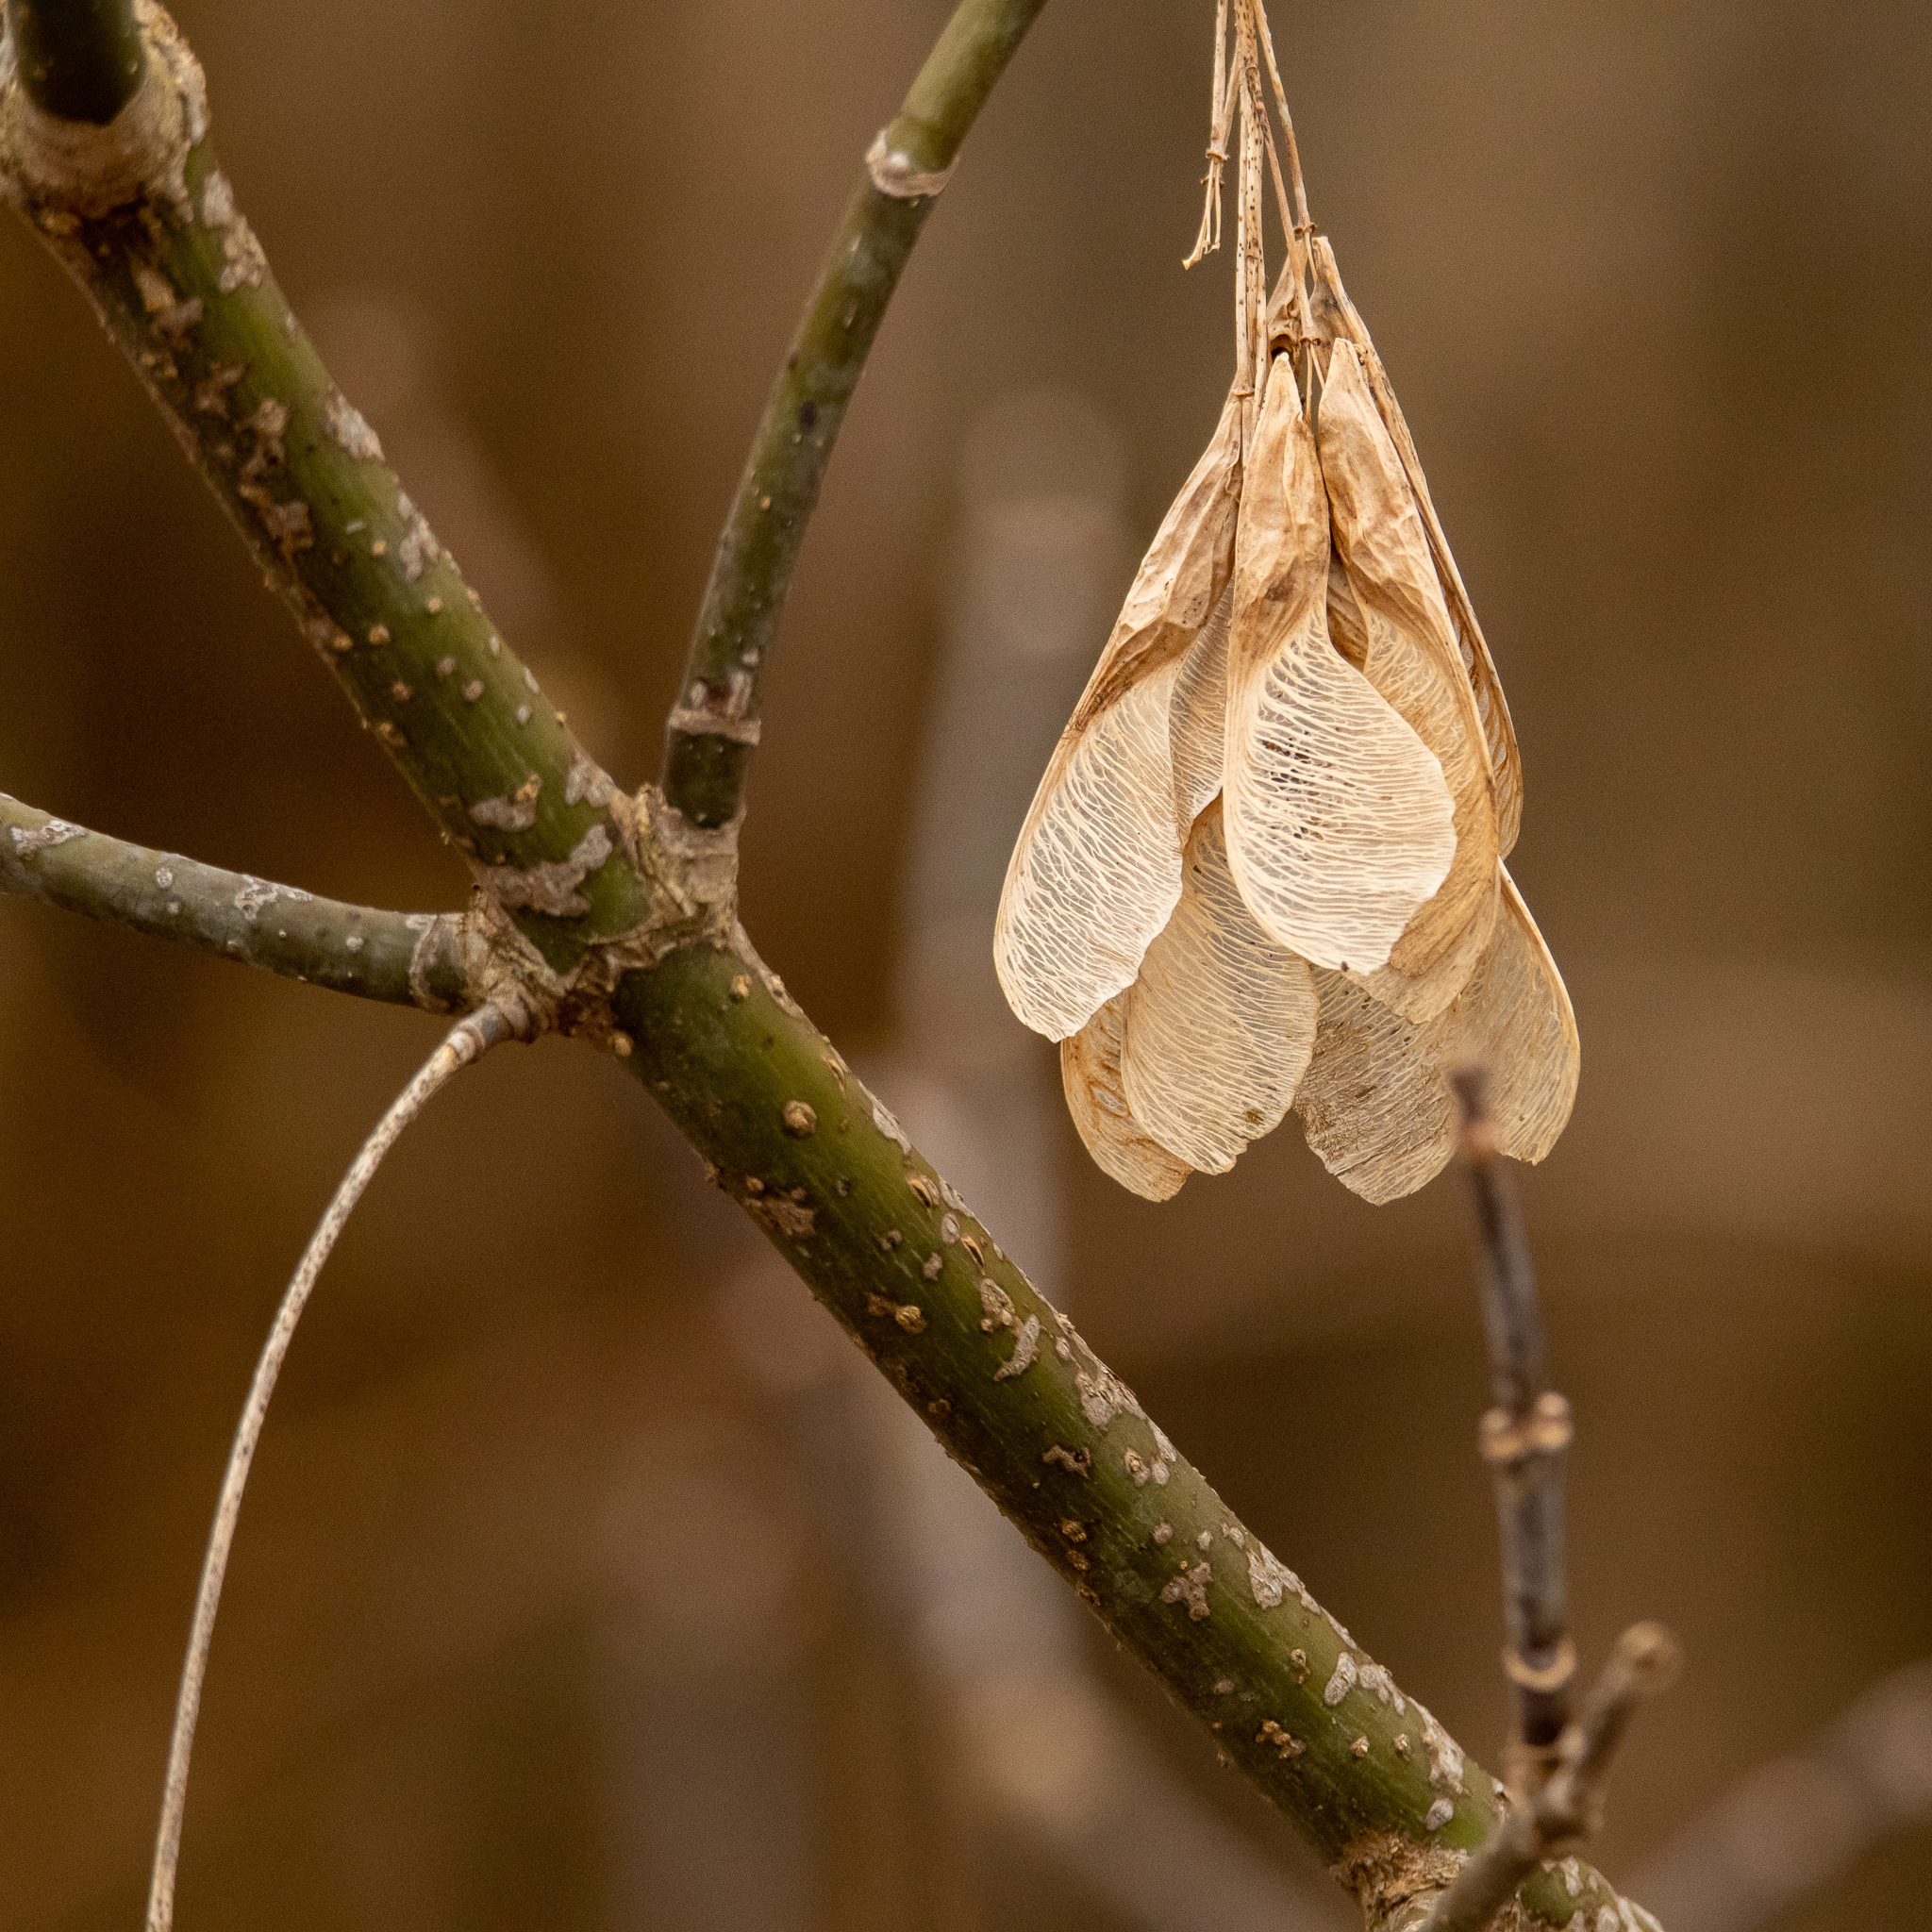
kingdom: Plantae
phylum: Tracheophyta
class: Magnoliopsida
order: Sapindales
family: Sapindaceae
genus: Acer
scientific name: Acer negundo
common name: Ashleaf maple
